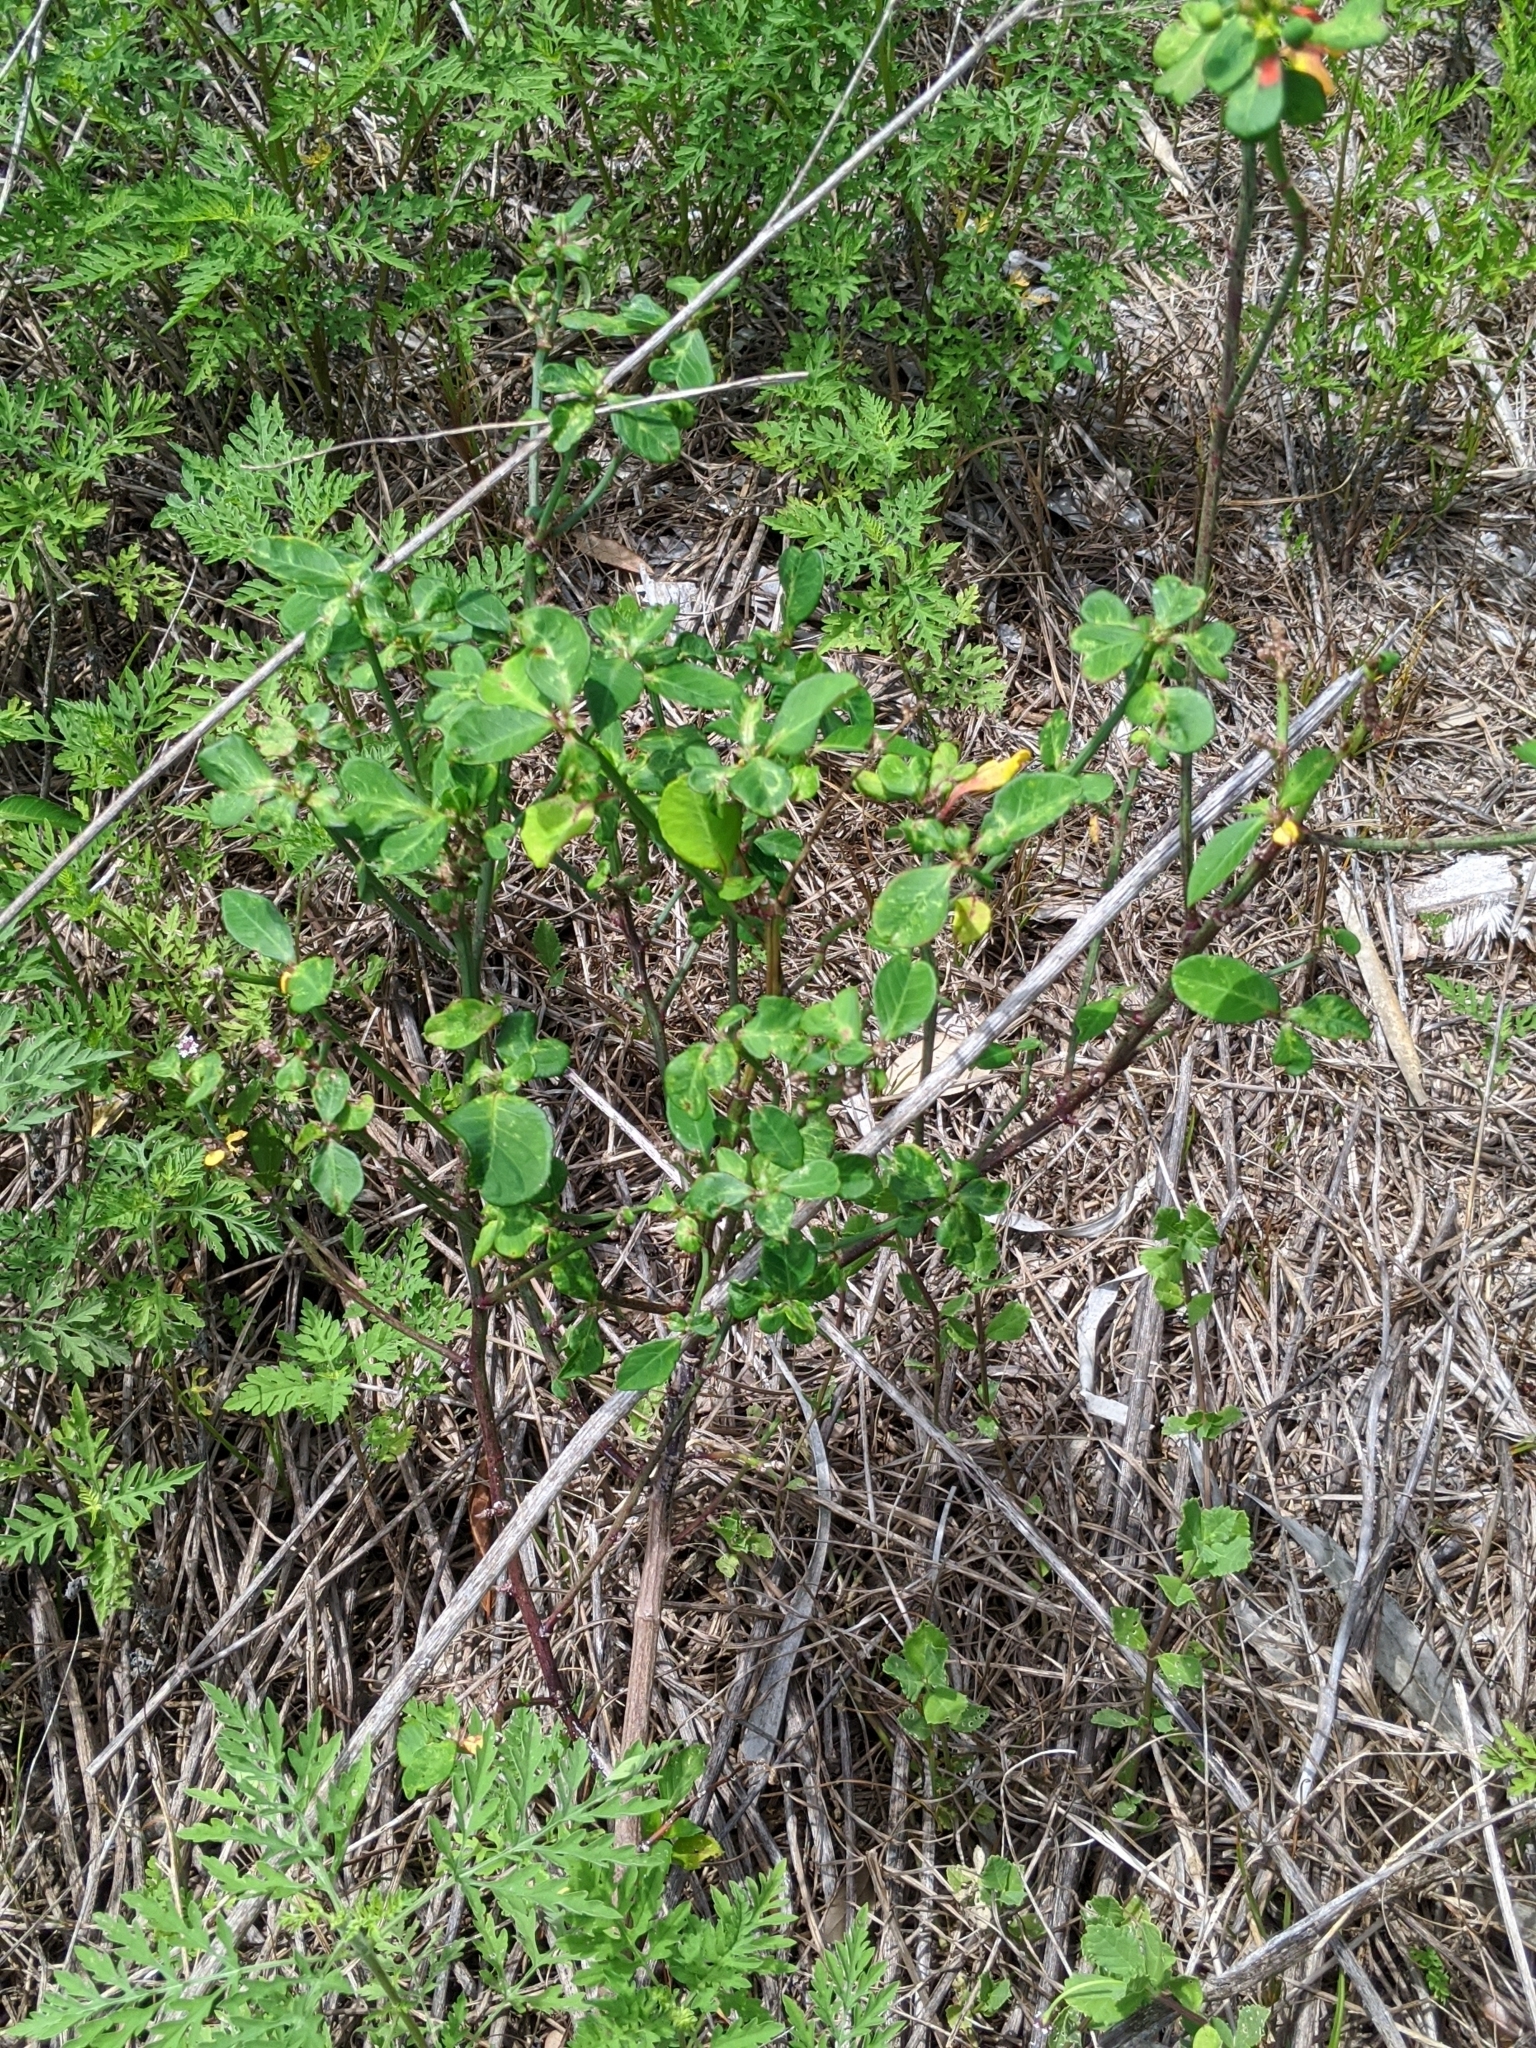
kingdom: Plantae
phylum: Tracheophyta
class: Magnoliopsida
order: Malpighiales
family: Euphorbiaceae
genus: Euphorbia
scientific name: Euphorbia heterophylla
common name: Mexican fireplant
